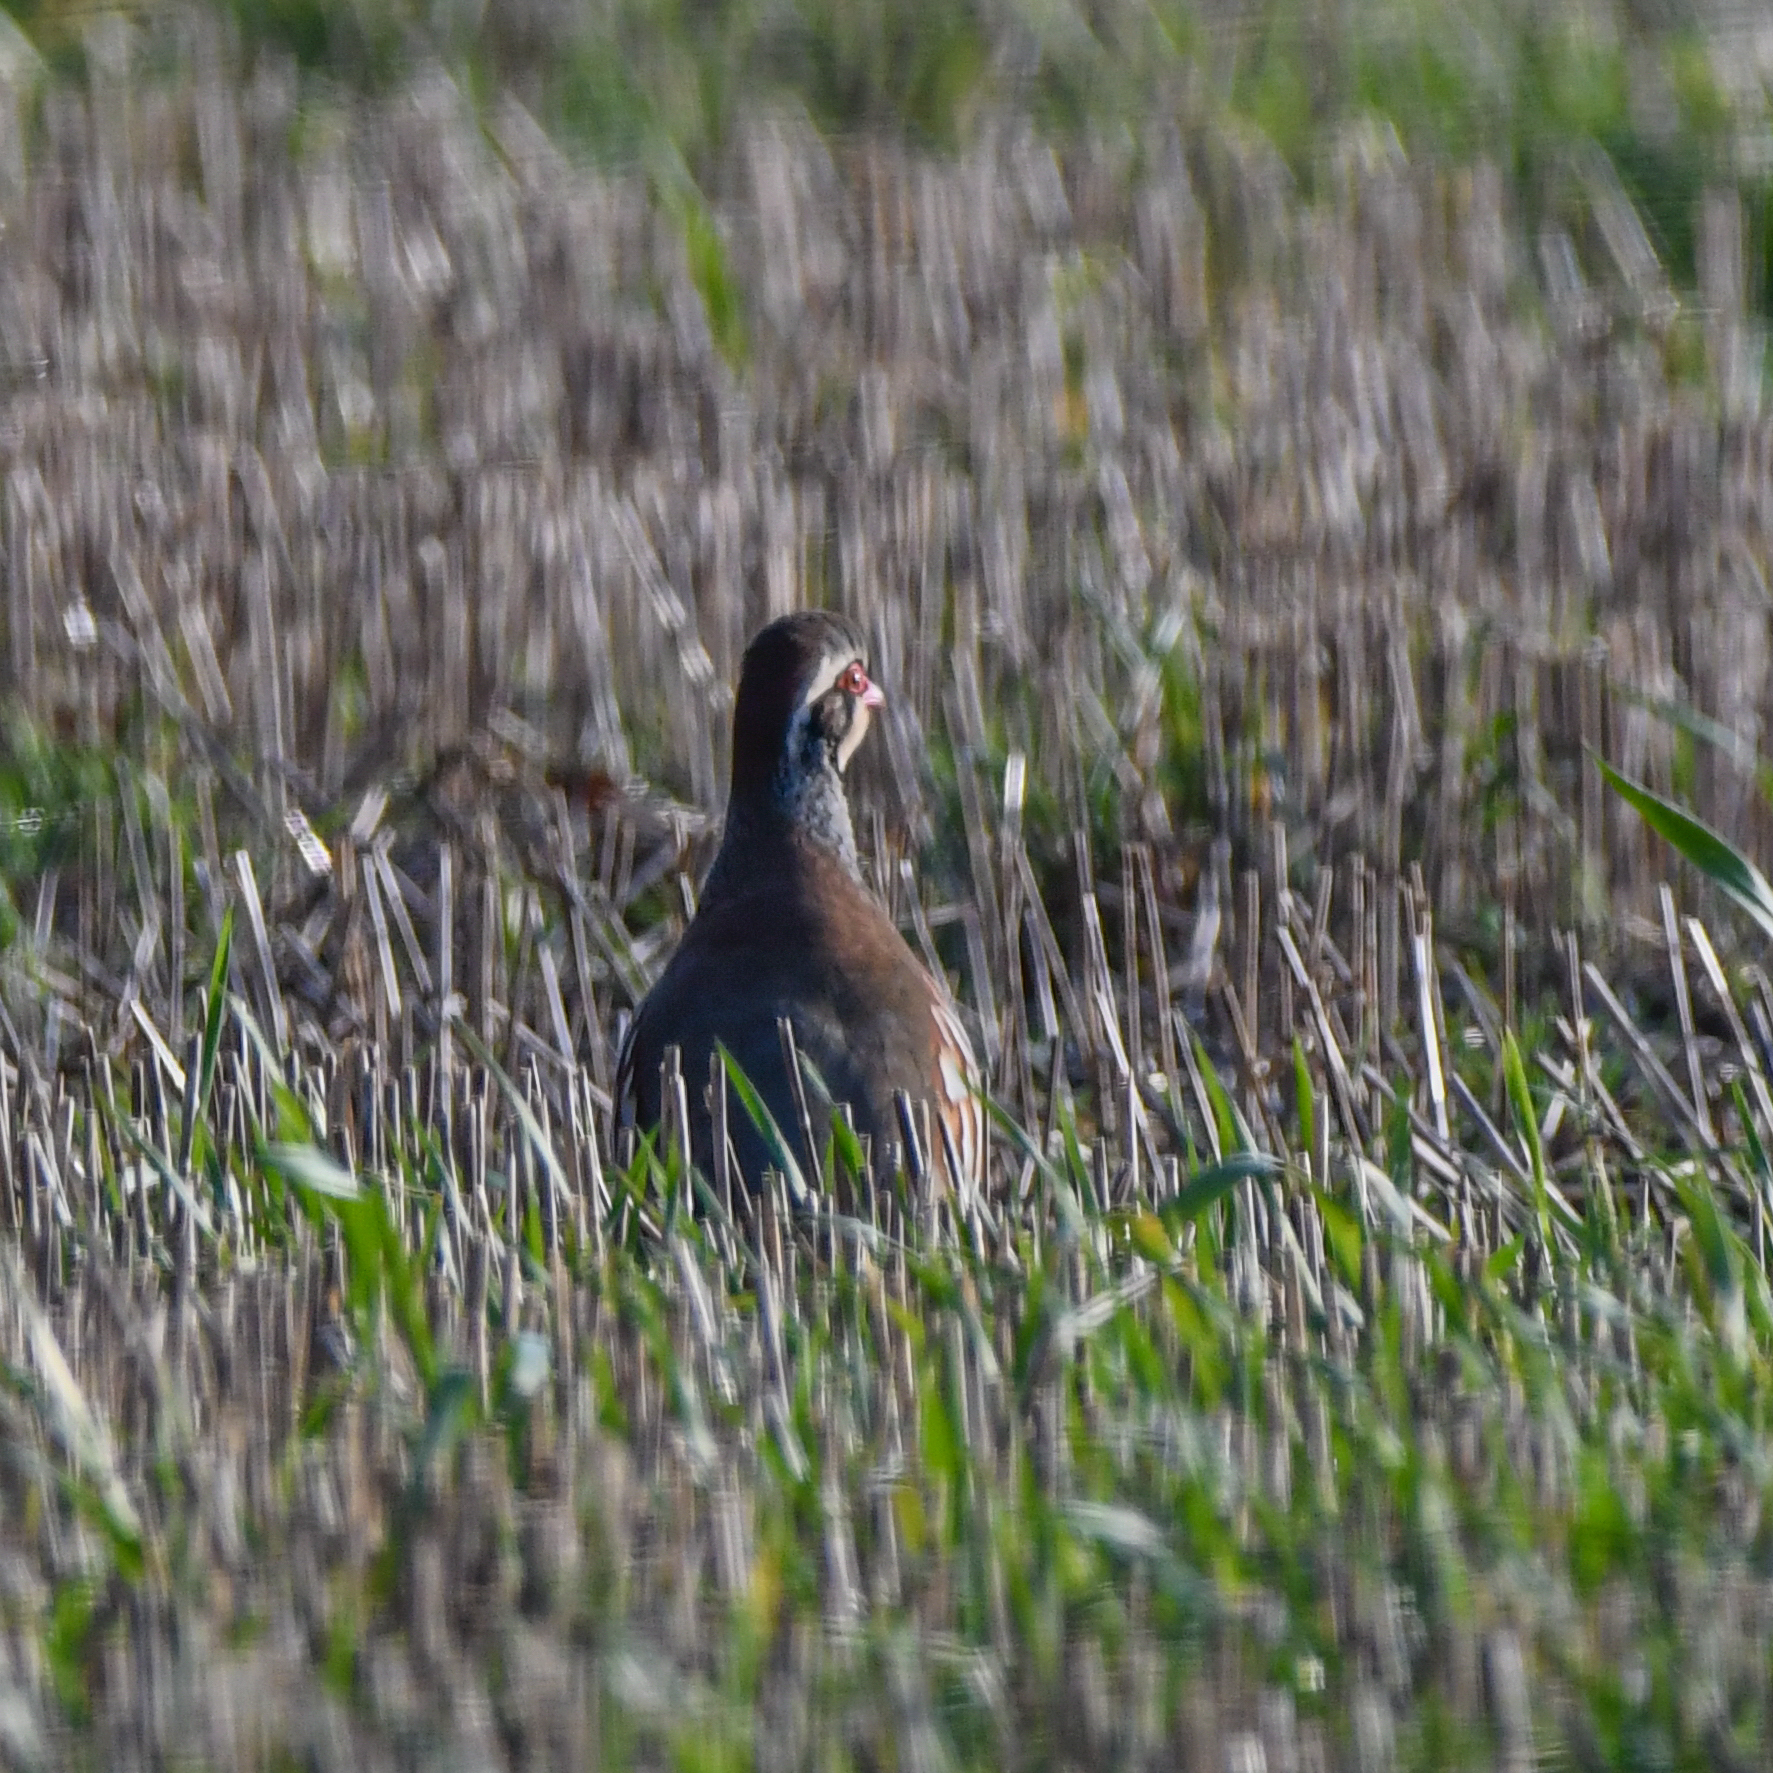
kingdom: Animalia
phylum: Chordata
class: Aves
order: Galliformes
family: Phasianidae
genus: Alectoris
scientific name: Alectoris rufa
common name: Red-legged partridge
